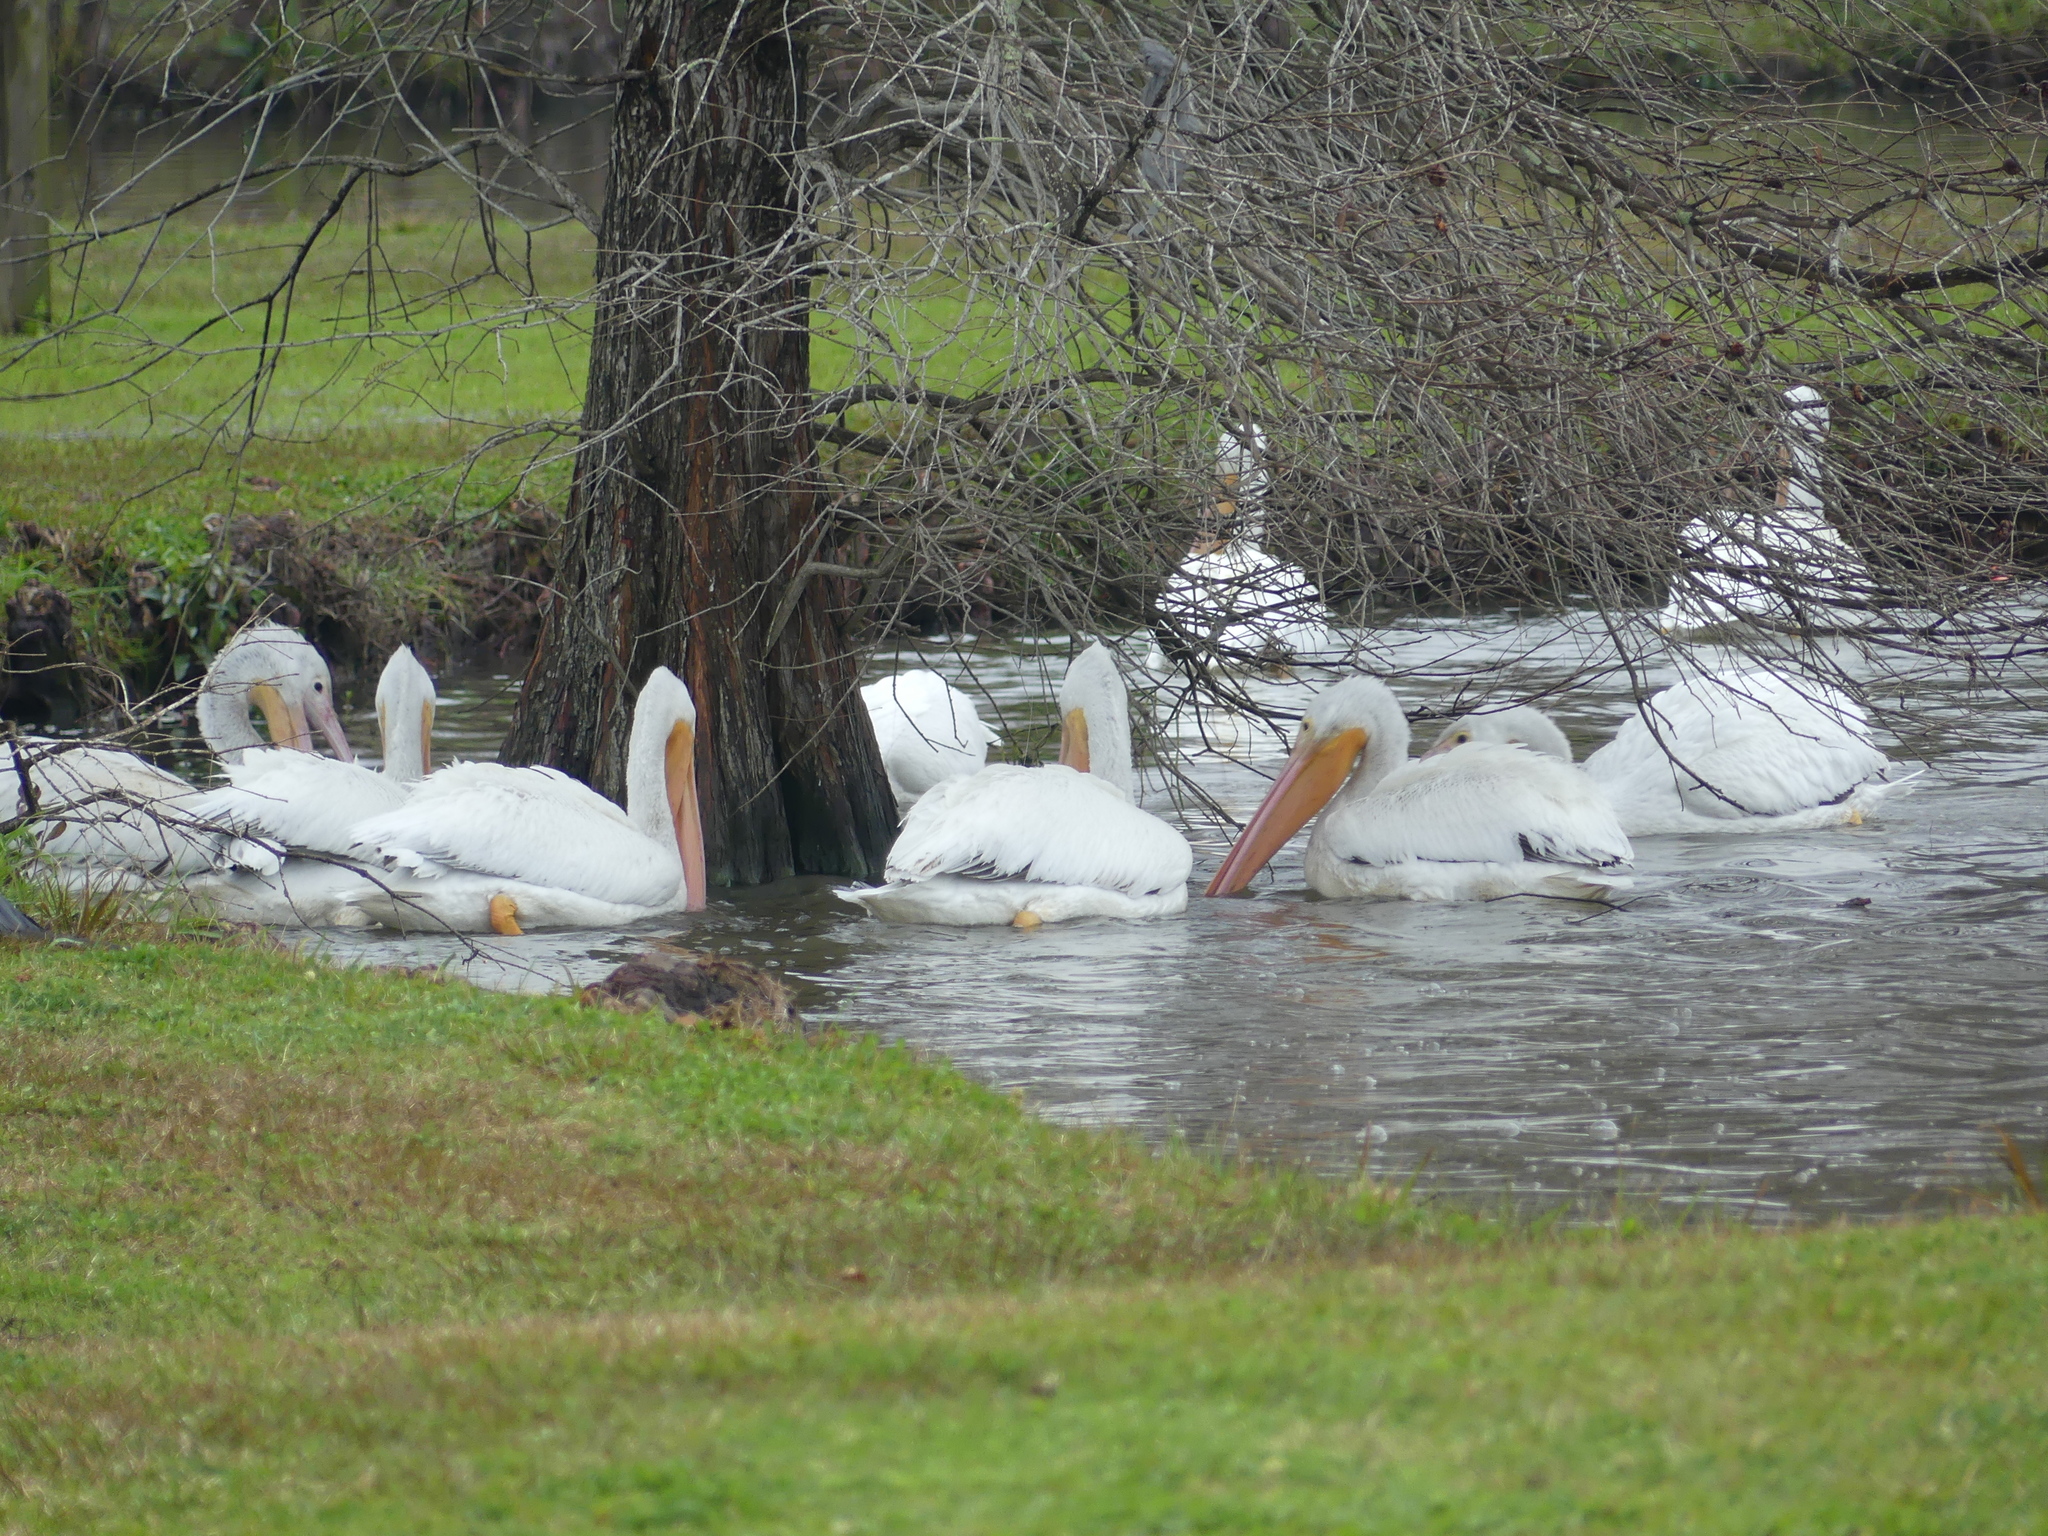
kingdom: Animalia
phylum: Chordata
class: Aves
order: Pelecaniformes
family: Pelecanidae
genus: Pelecanus
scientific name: Pelecanus erythrorhynchos
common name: American white pelican
